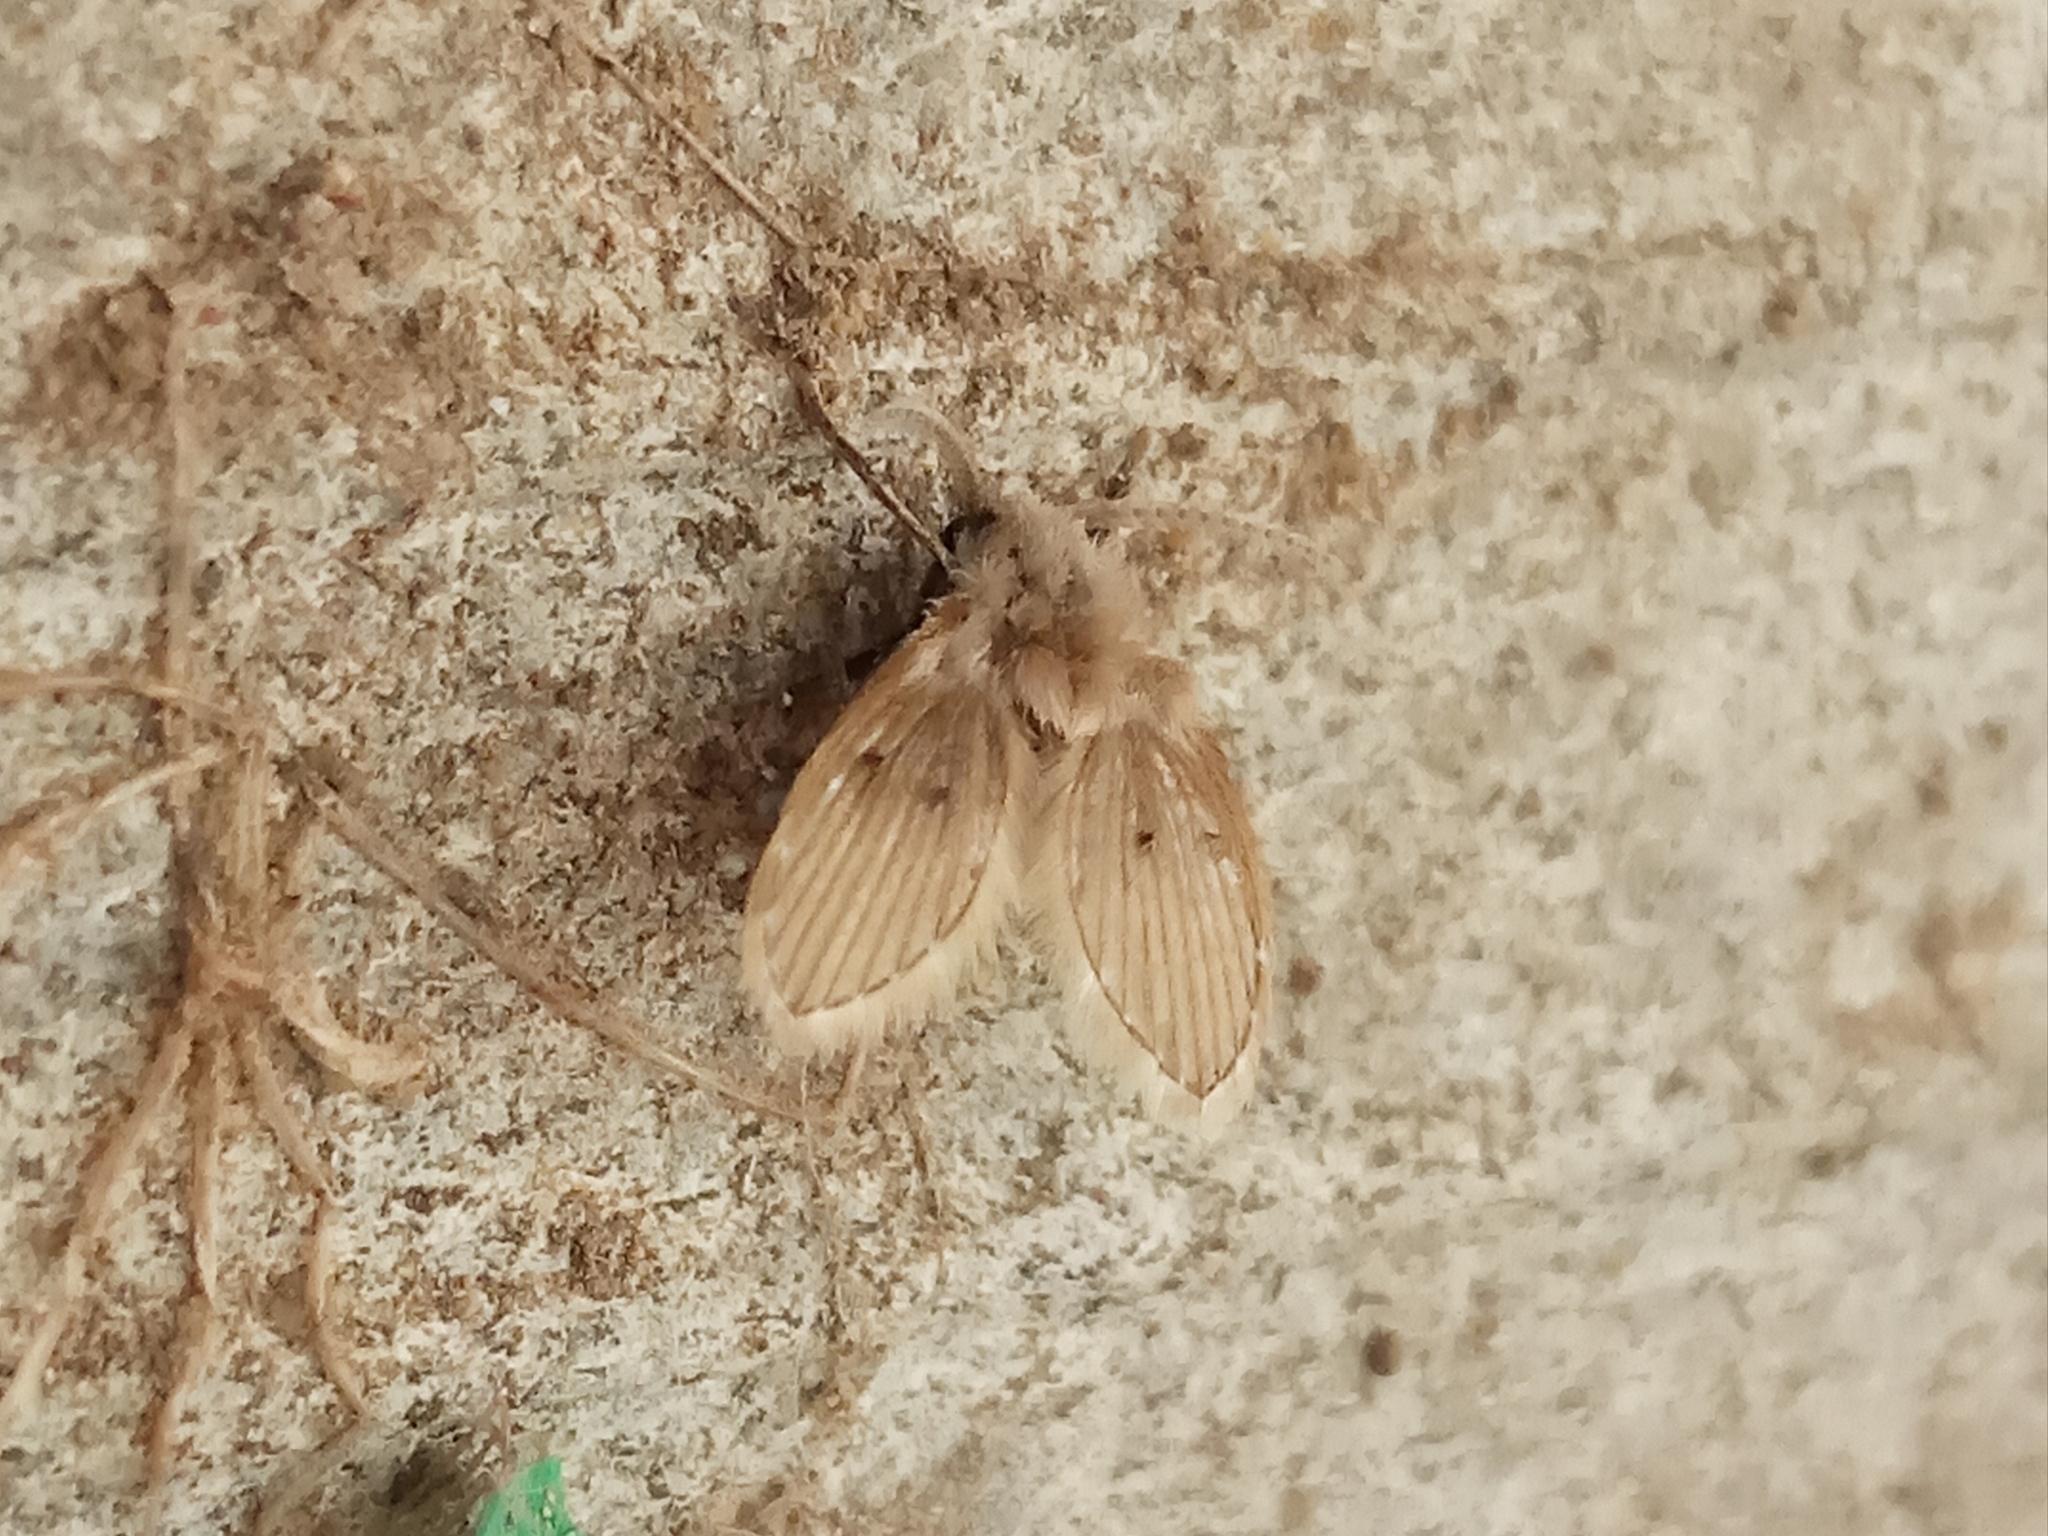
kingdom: Animalia
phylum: Arthropoda
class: Insecta
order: Diptera
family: Psychodidae
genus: Clogmia
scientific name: Clogmia albipunctatus
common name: White-spotted moth fly
